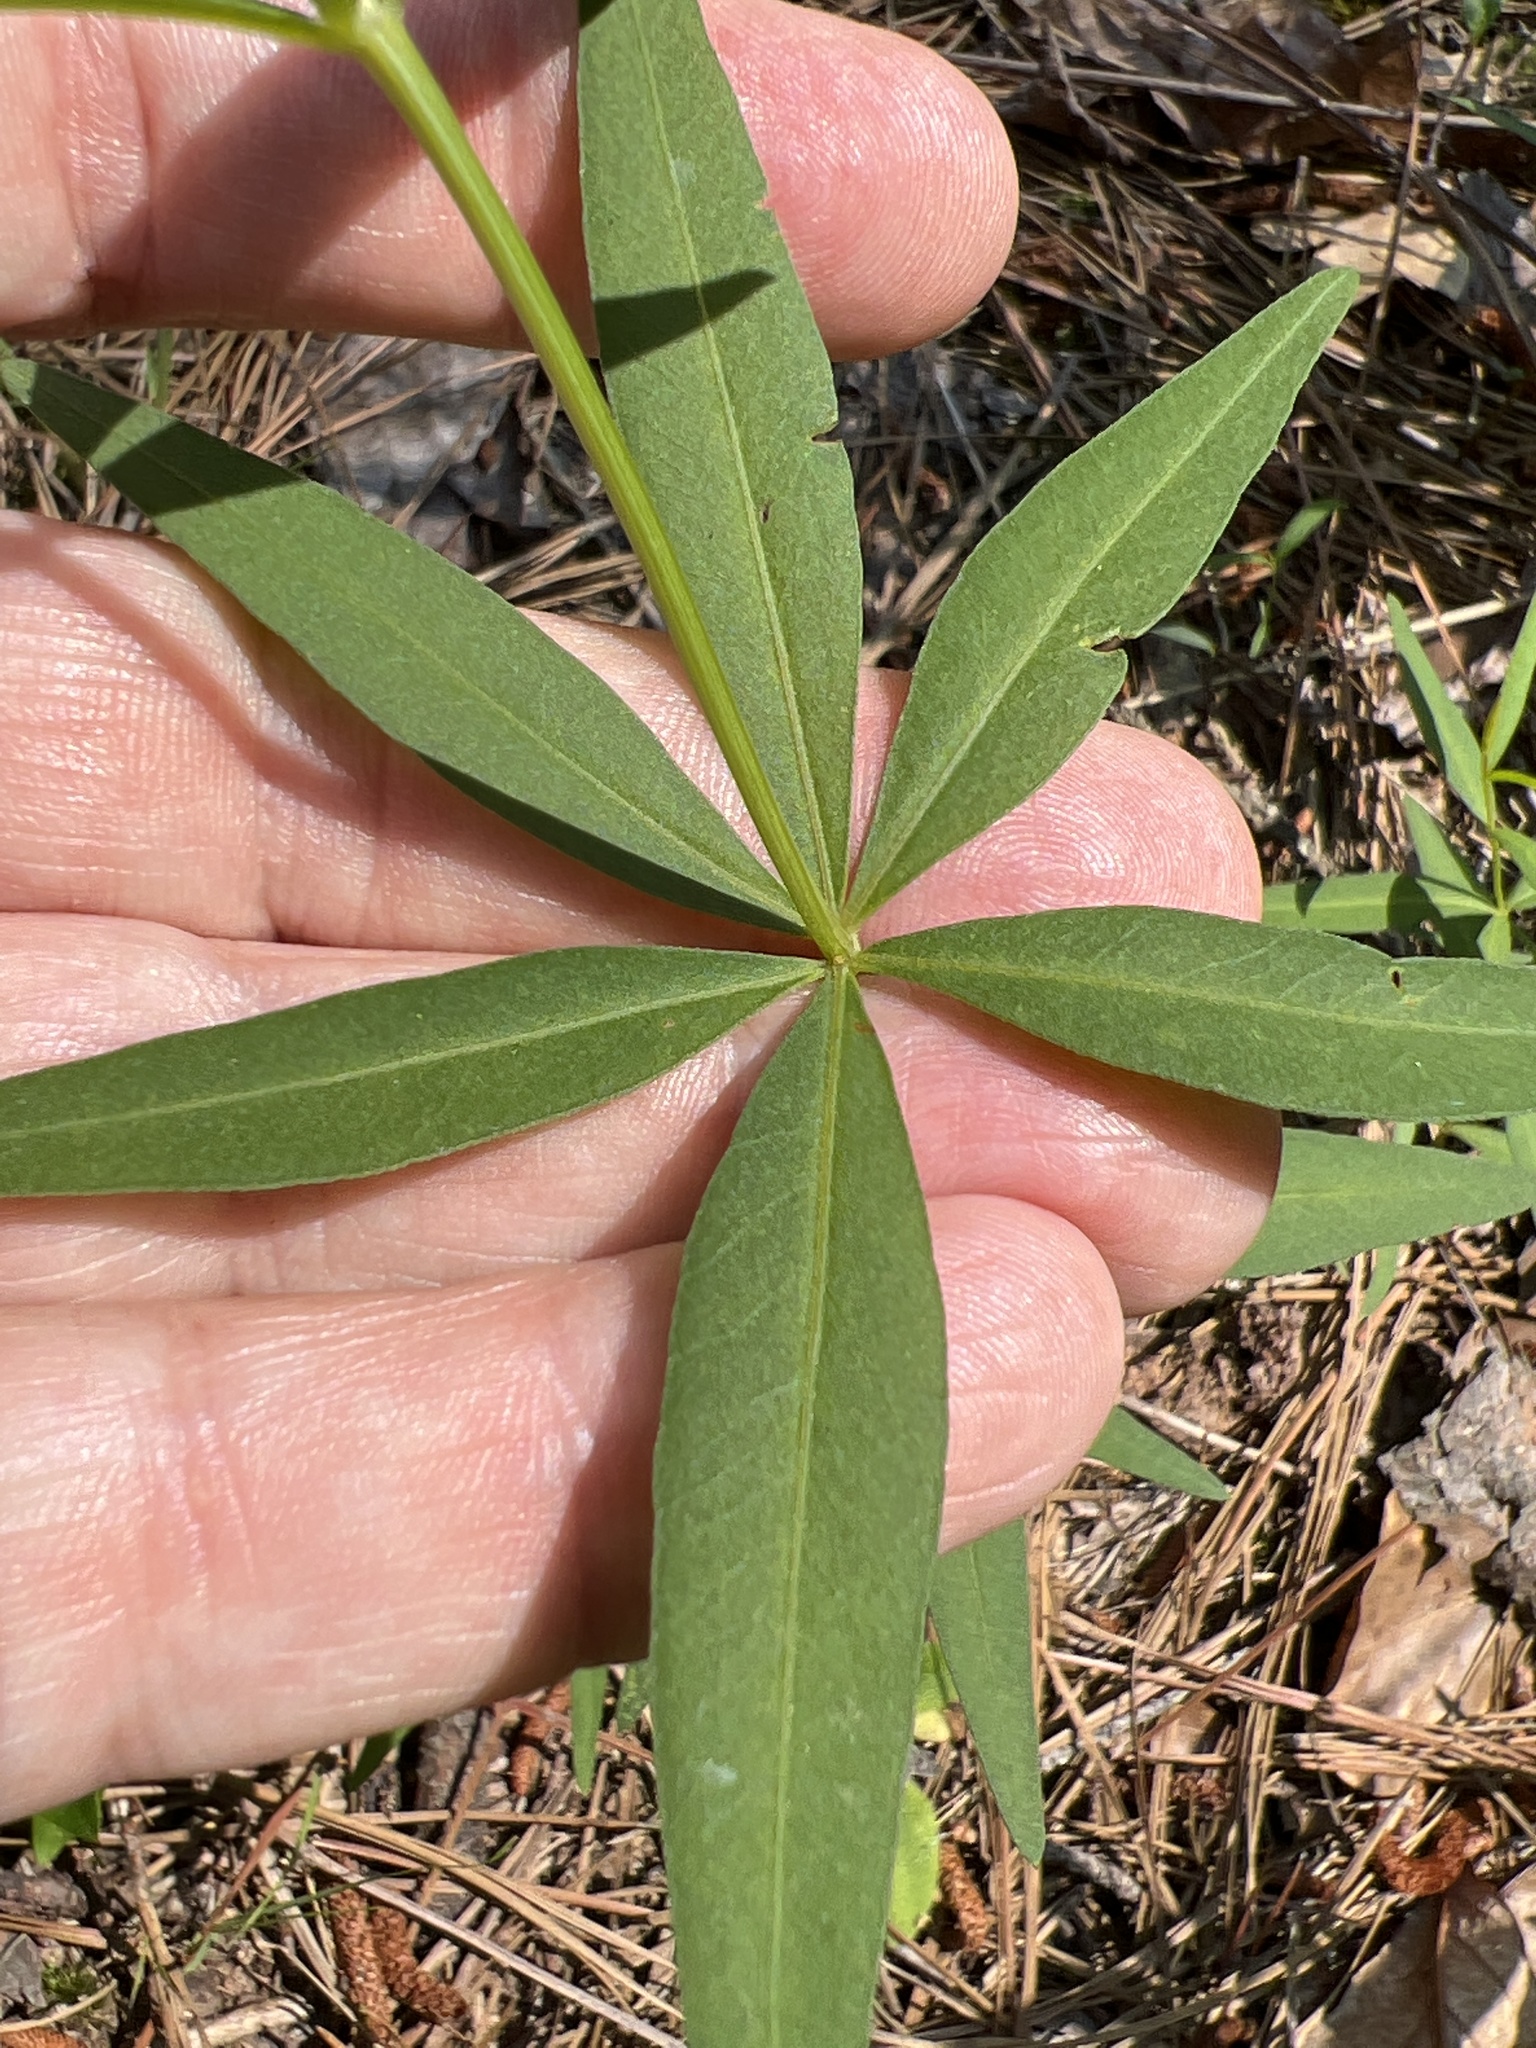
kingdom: Plantae
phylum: Tracheophyta
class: Magnoliopsida
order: Asterales
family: Asteraceae
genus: Coreopsis
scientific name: Coreopsis major
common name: Forest tickseed
